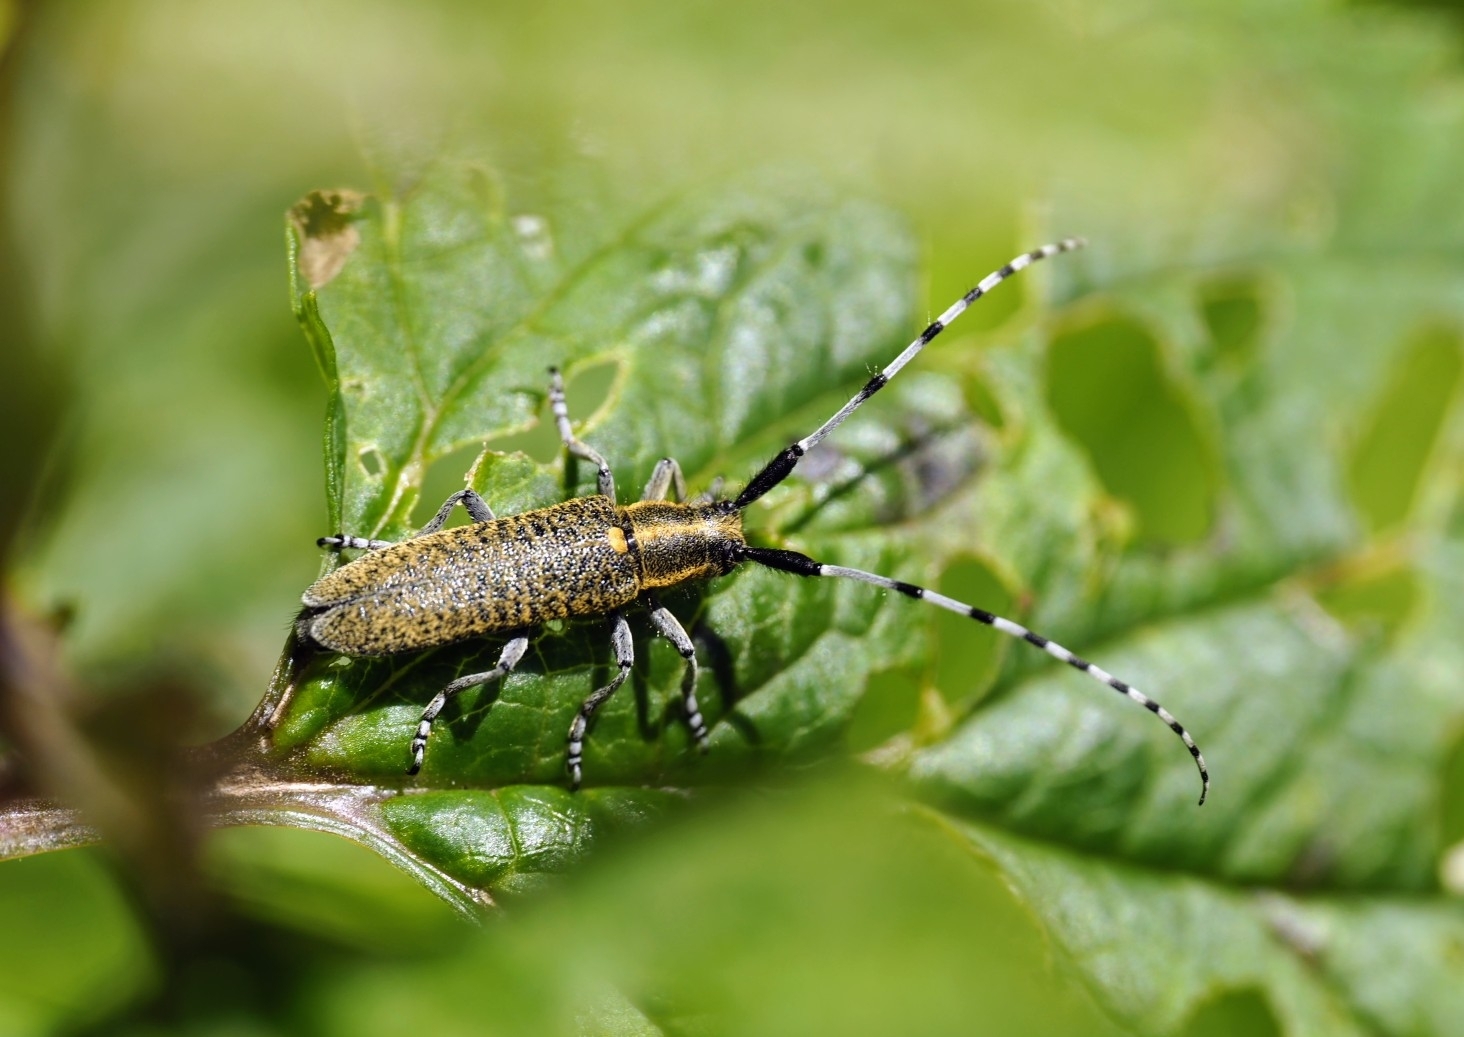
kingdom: Animalia
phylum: Arthropoda
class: Insecta
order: Coleoptera
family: Cerambycidae
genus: Agapanthia
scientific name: Agapanthia villosoviridescens
